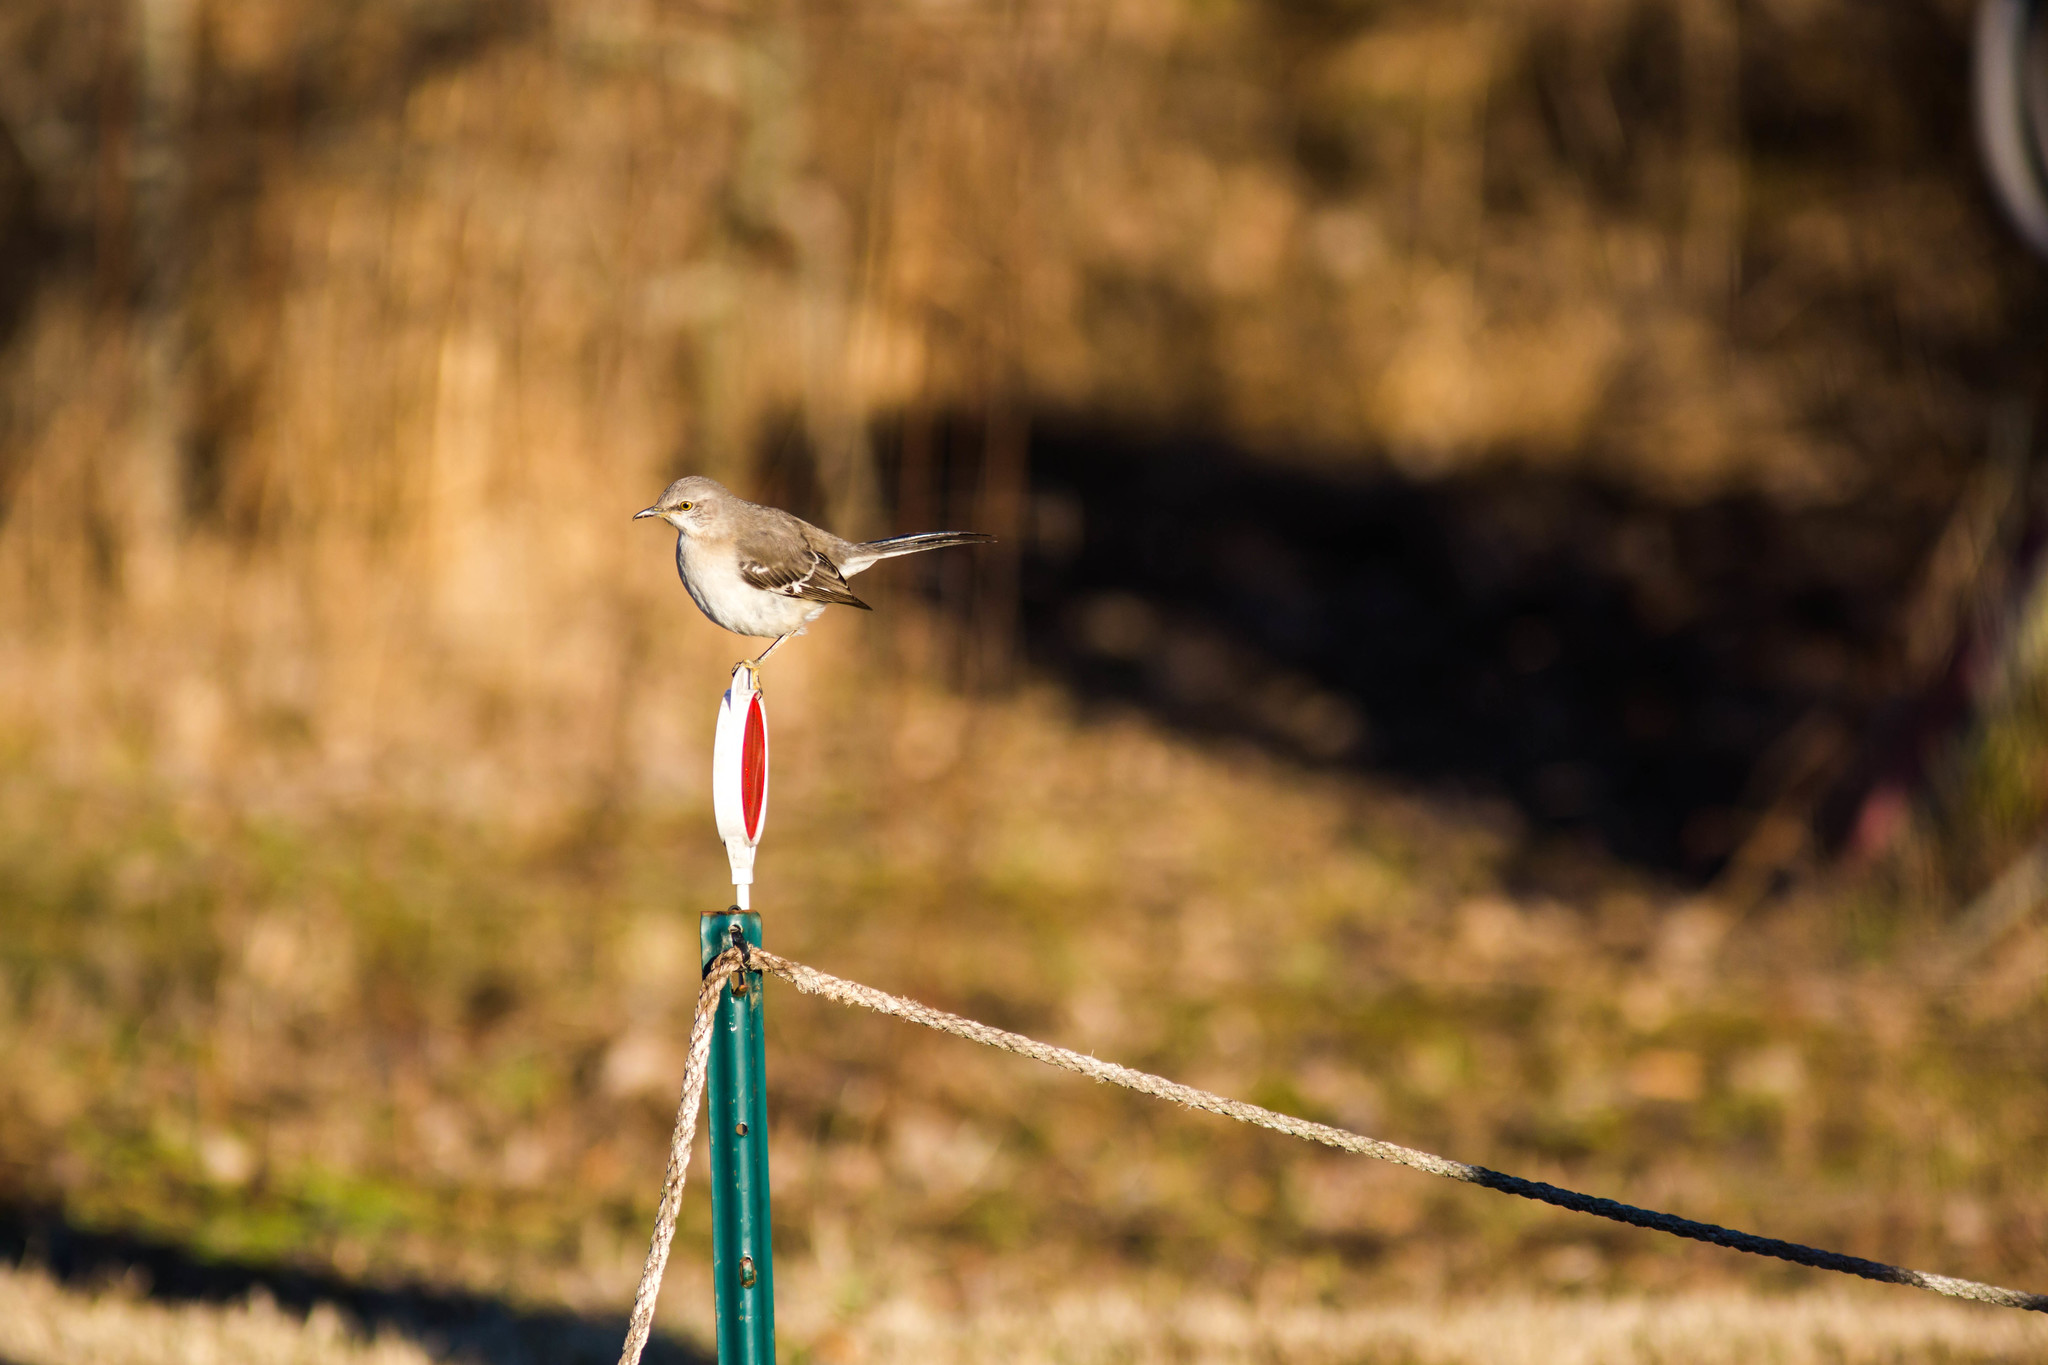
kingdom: Animalia
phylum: Chordata
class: Aves
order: Passeriformes
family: Mimidae
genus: Mimus
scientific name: Mimus polyglottos
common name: Northern mockingbird
